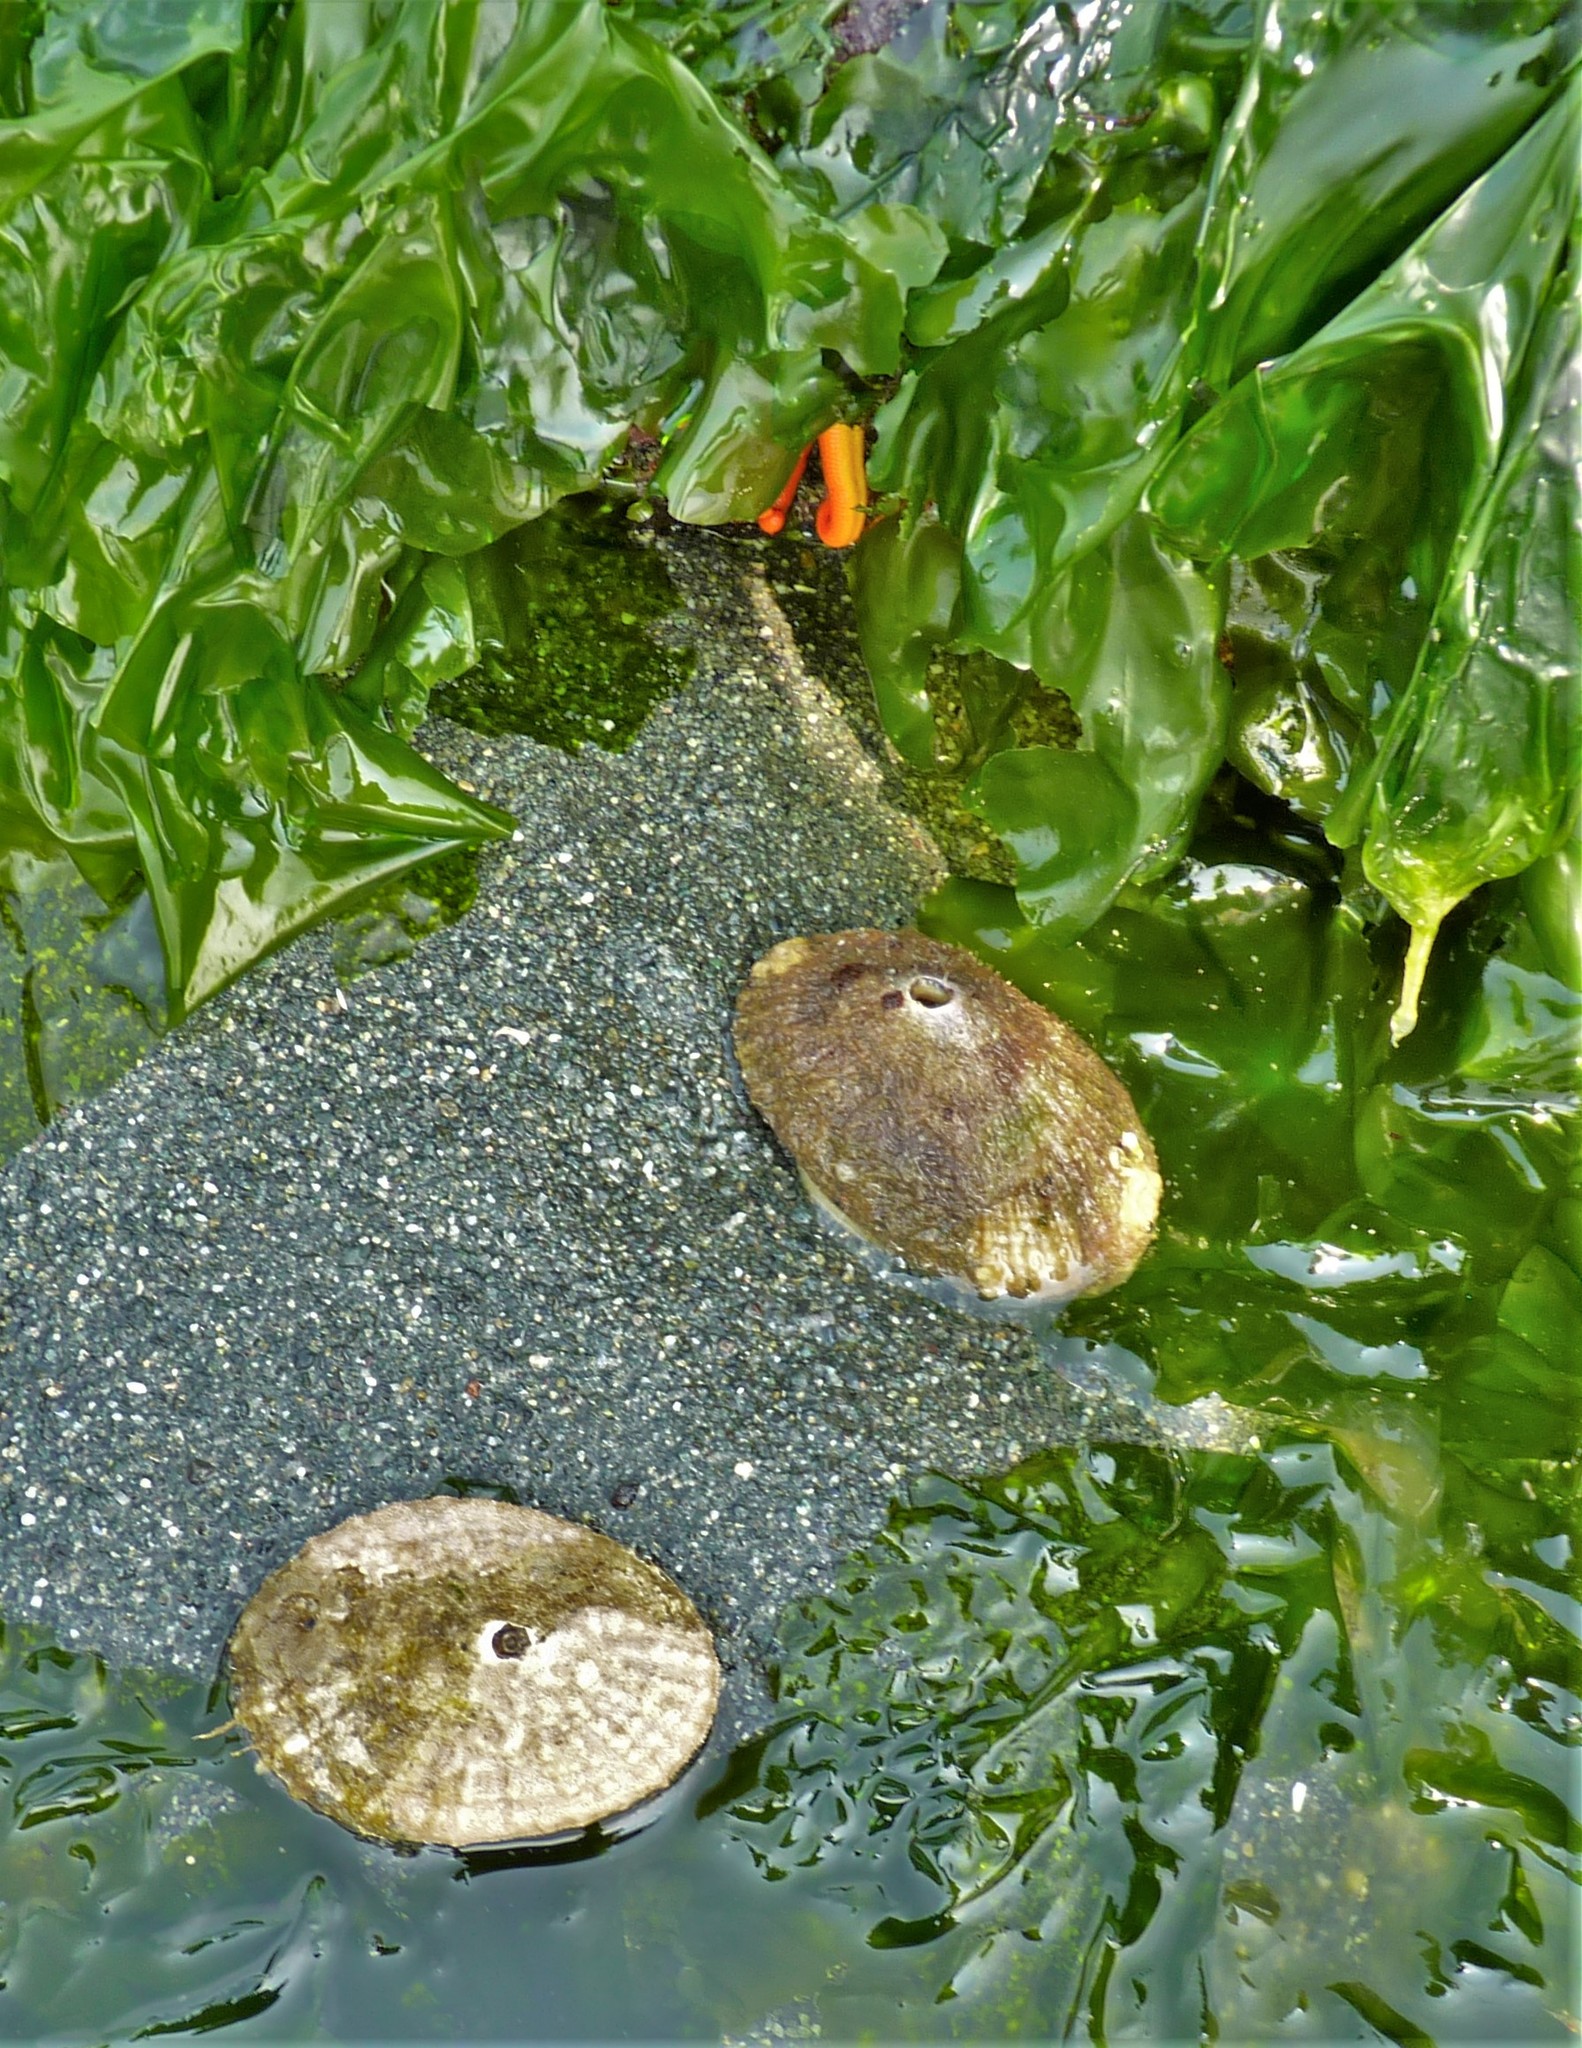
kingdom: Animalia
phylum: Mollusca
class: Gastropoda
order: Lepetellida
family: Fissurellidae
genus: Diodora
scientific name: Diodora aspera
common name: Rough keyhole limpet
